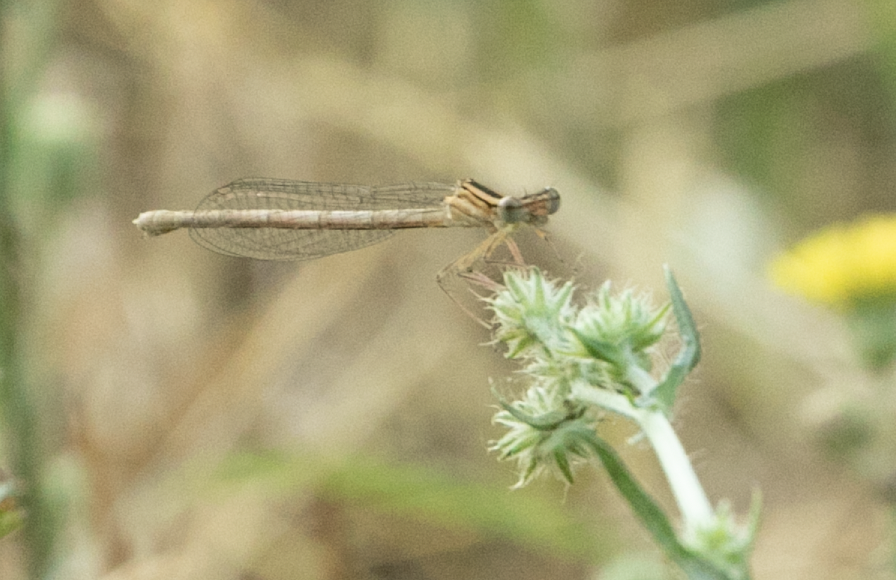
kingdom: Animalia
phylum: Arthropoda
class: Insecta
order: Odonata
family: Platycnemididae
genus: Platycnemis
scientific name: Platycnemis pennipes
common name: White-legged damselfly
